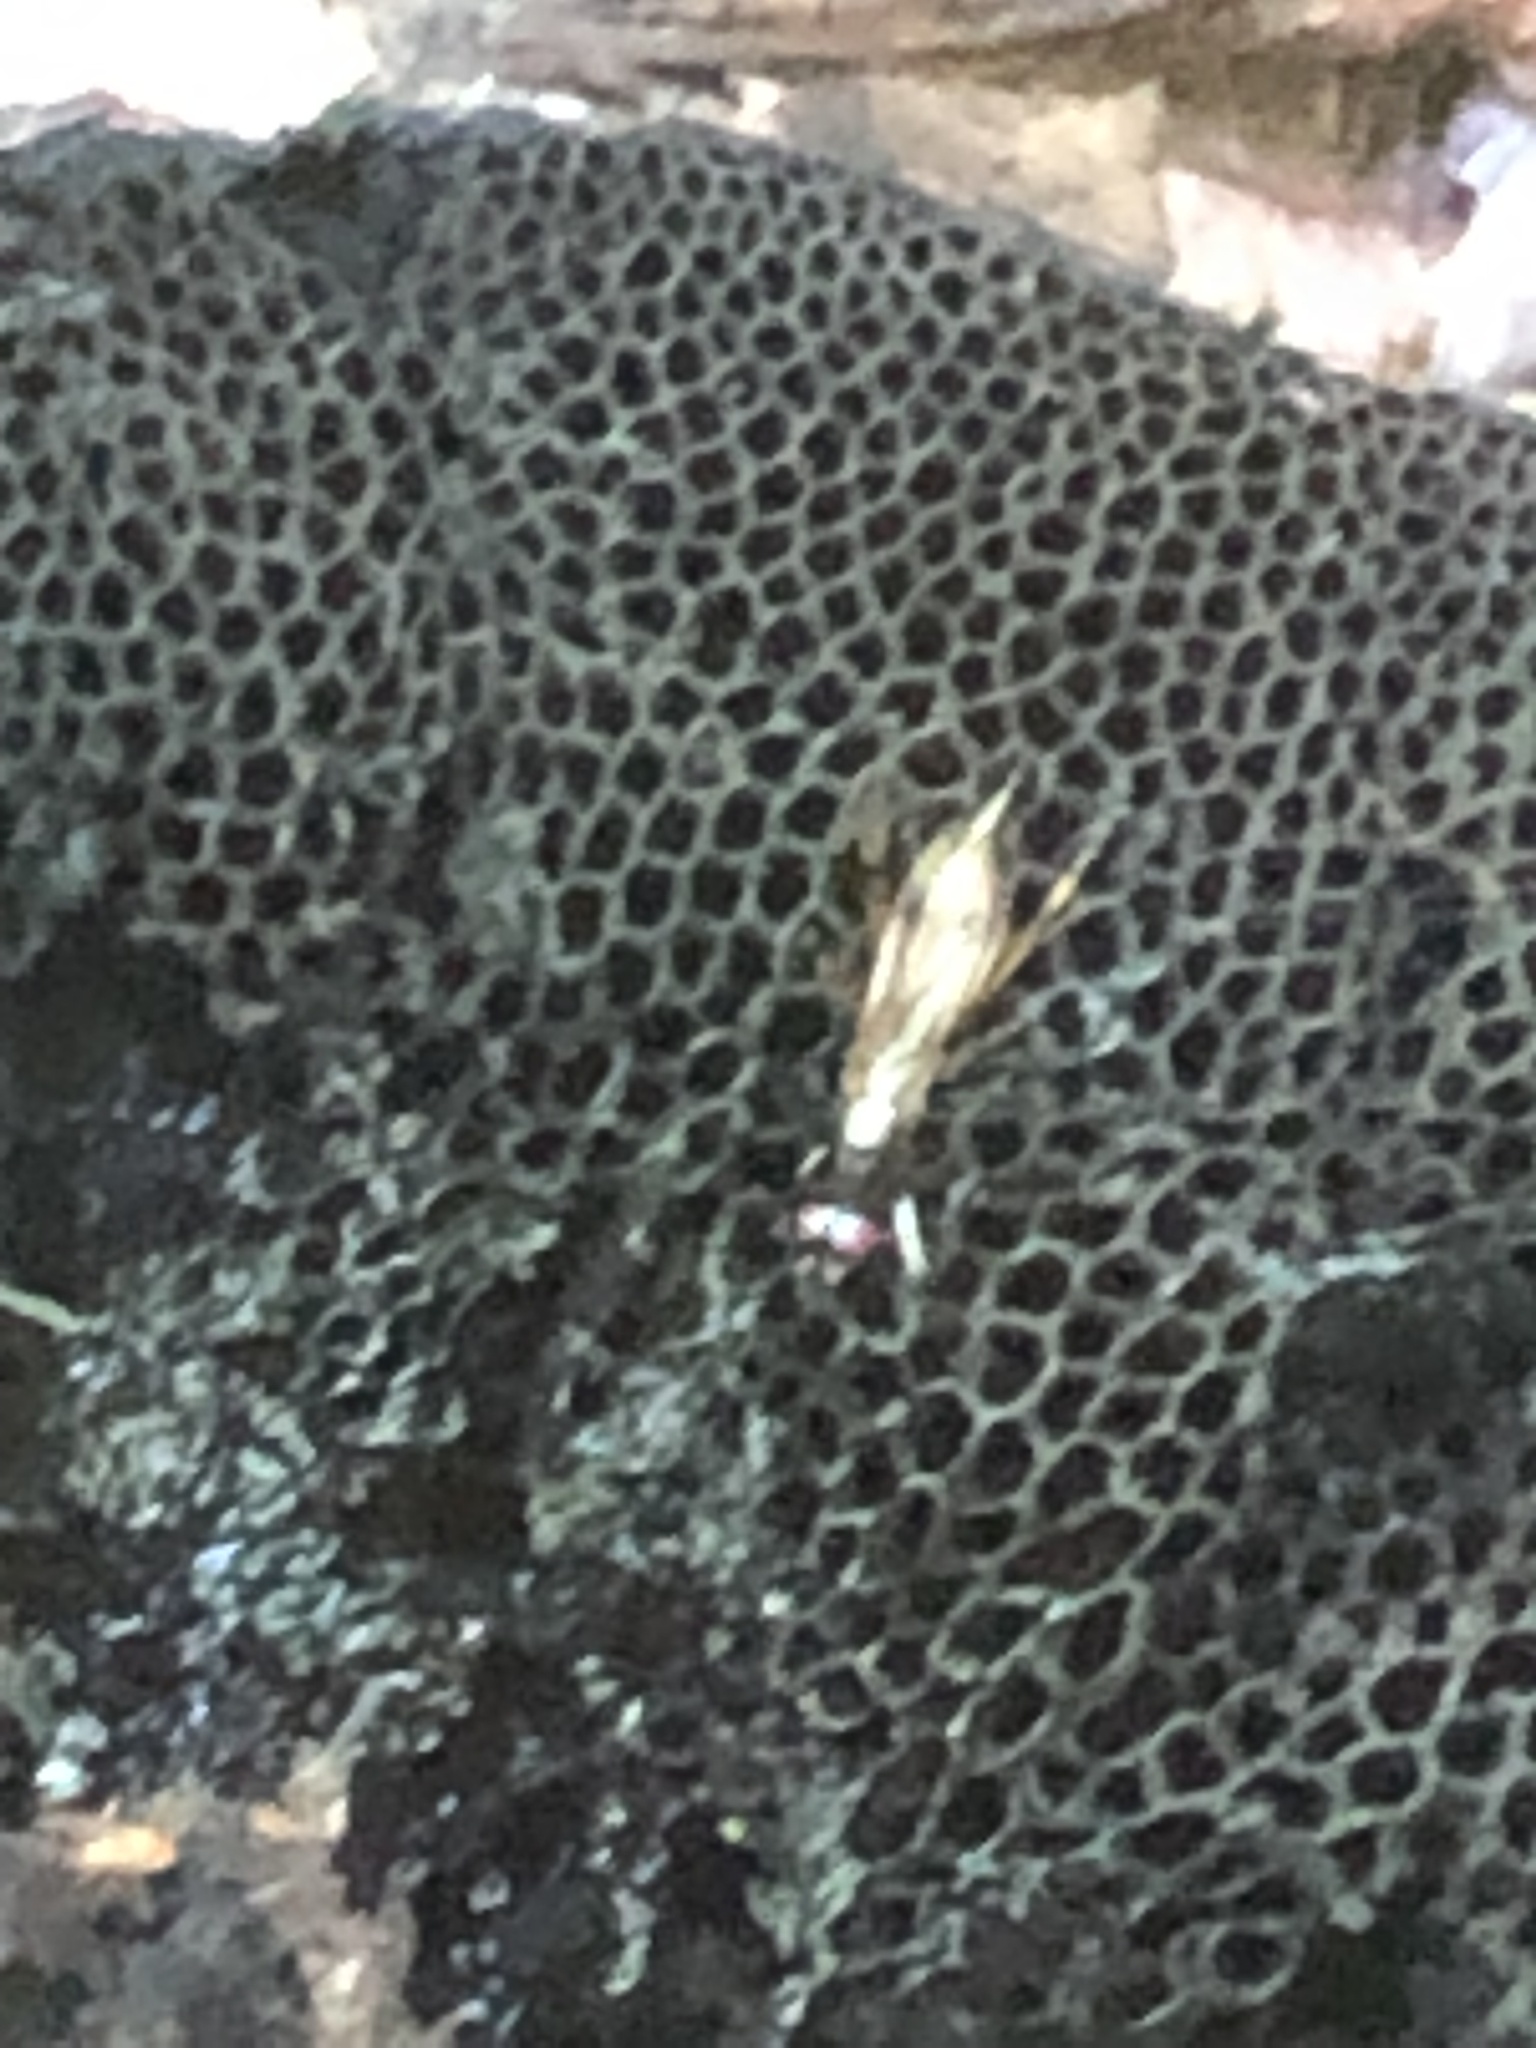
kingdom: Animalia
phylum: Arthropoda
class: Insecta
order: Diptera
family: Micropezidae
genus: Rainieria
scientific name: Rainieria antennaepes
